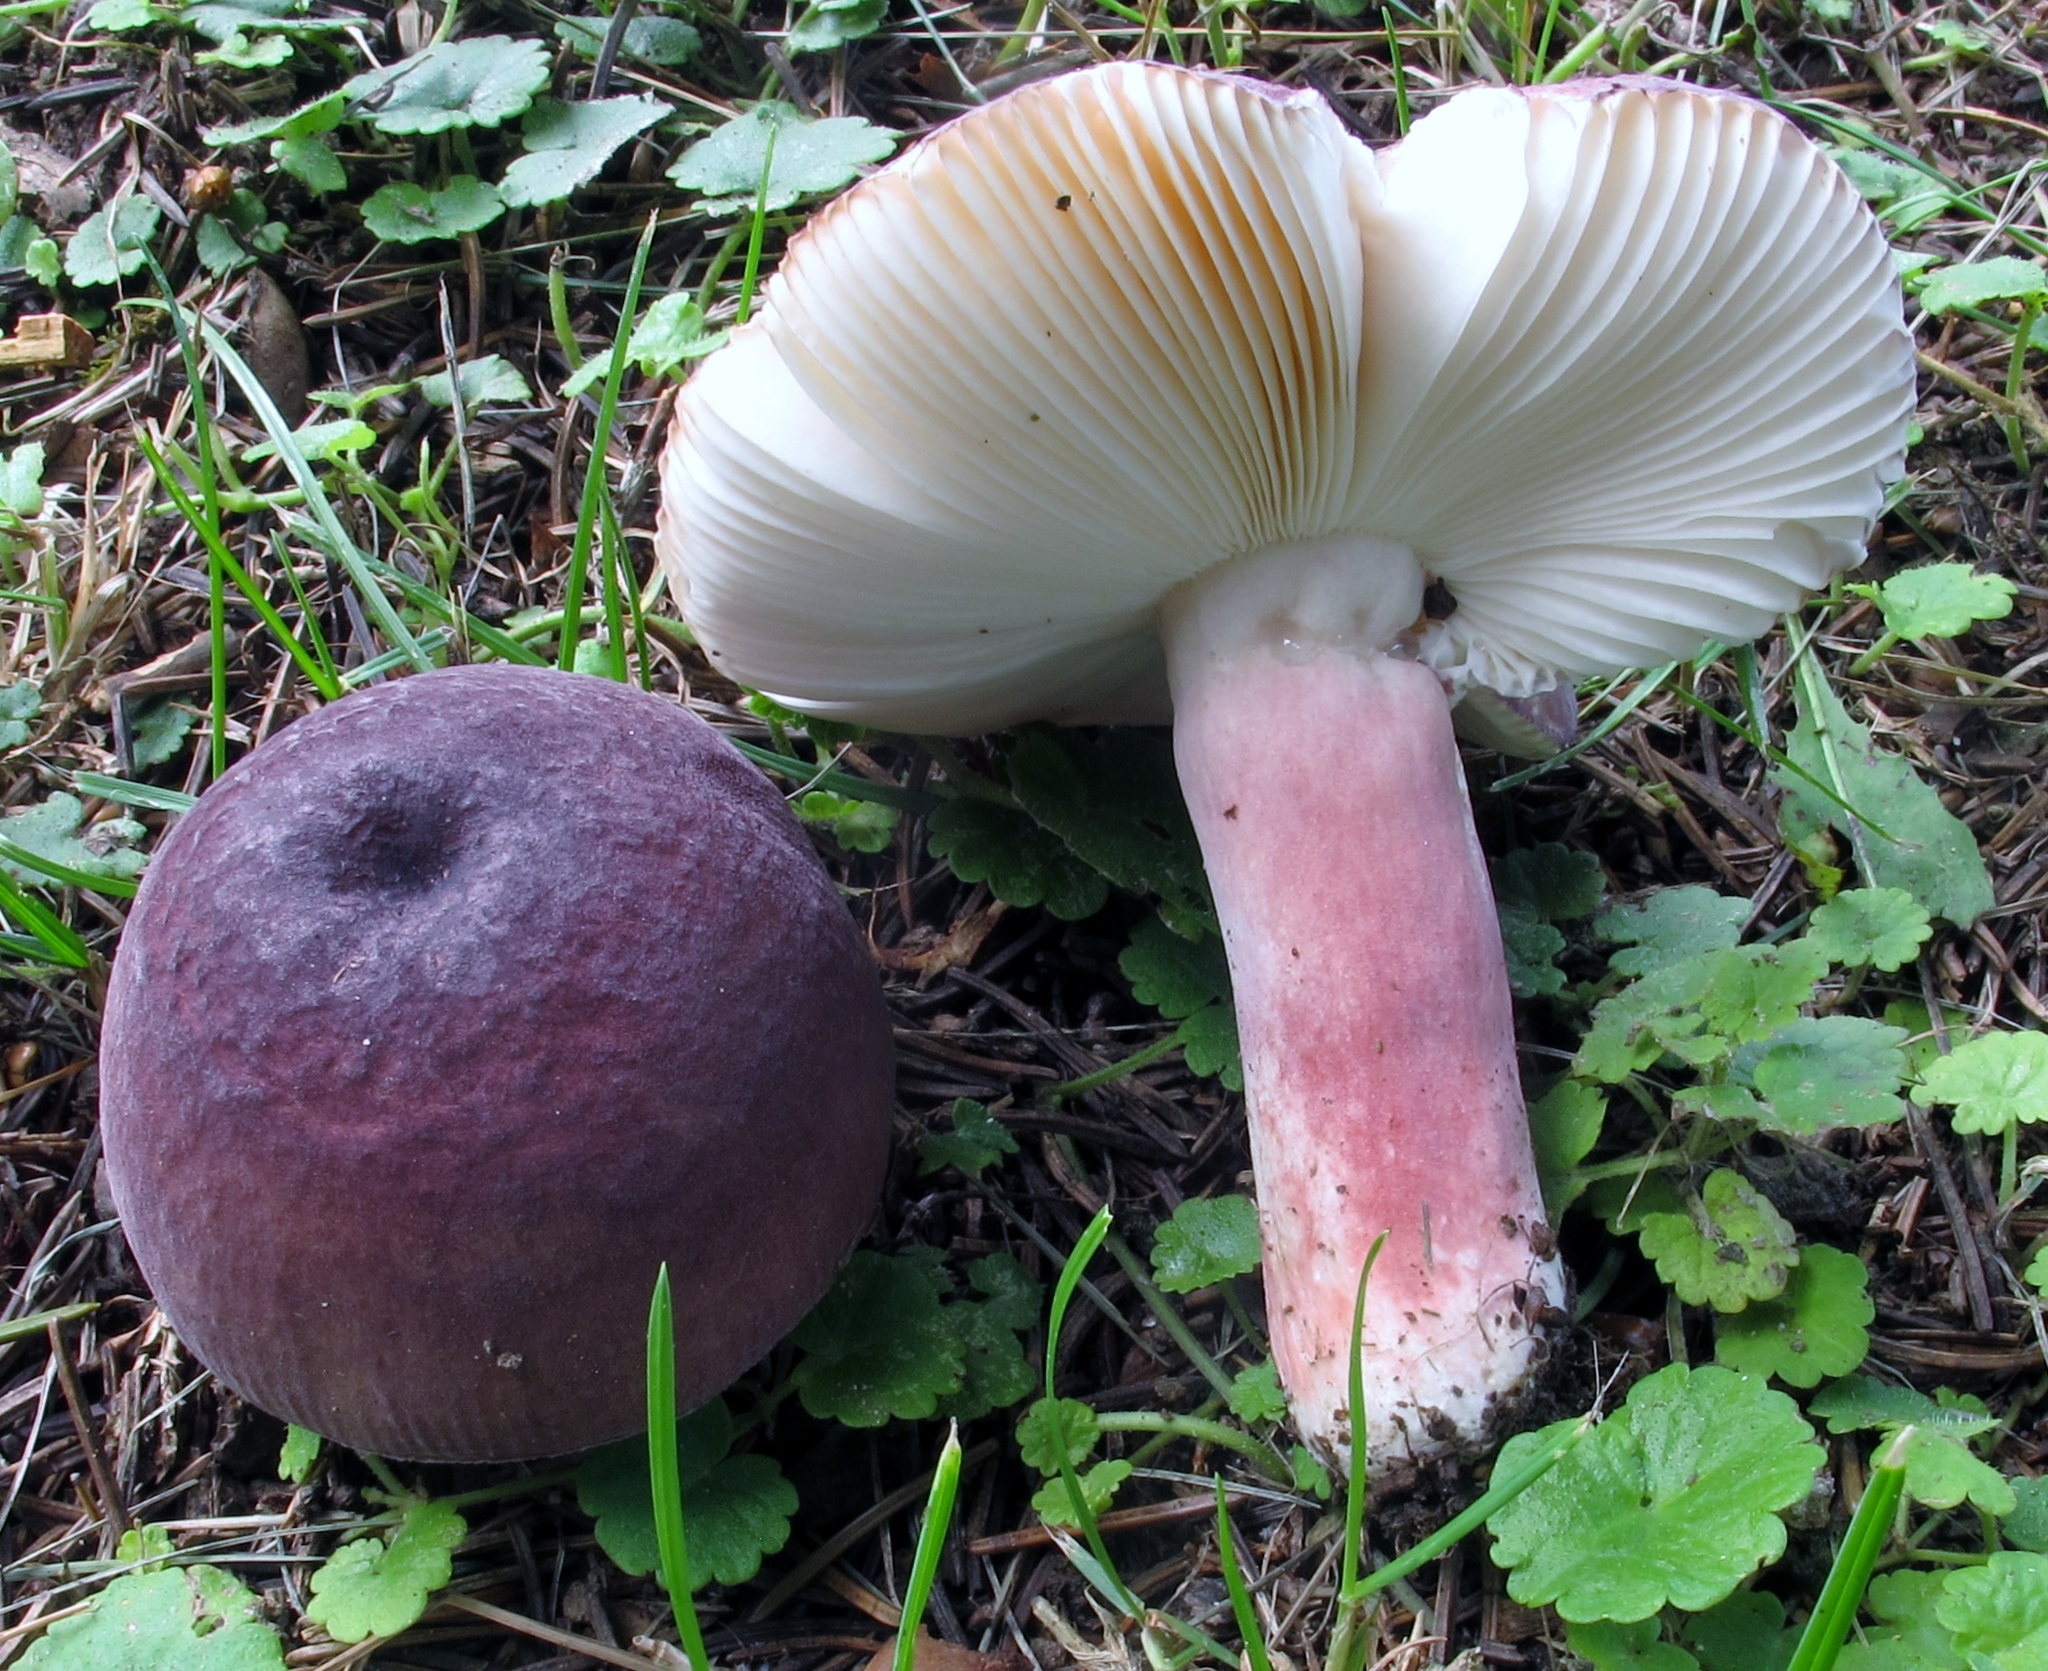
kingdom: Fungi
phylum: Basidiomycota
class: Agaricomycetes
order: Russulales
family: Russulaceae
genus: Russula
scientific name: Russula mariae
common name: Purple-bloom russula
